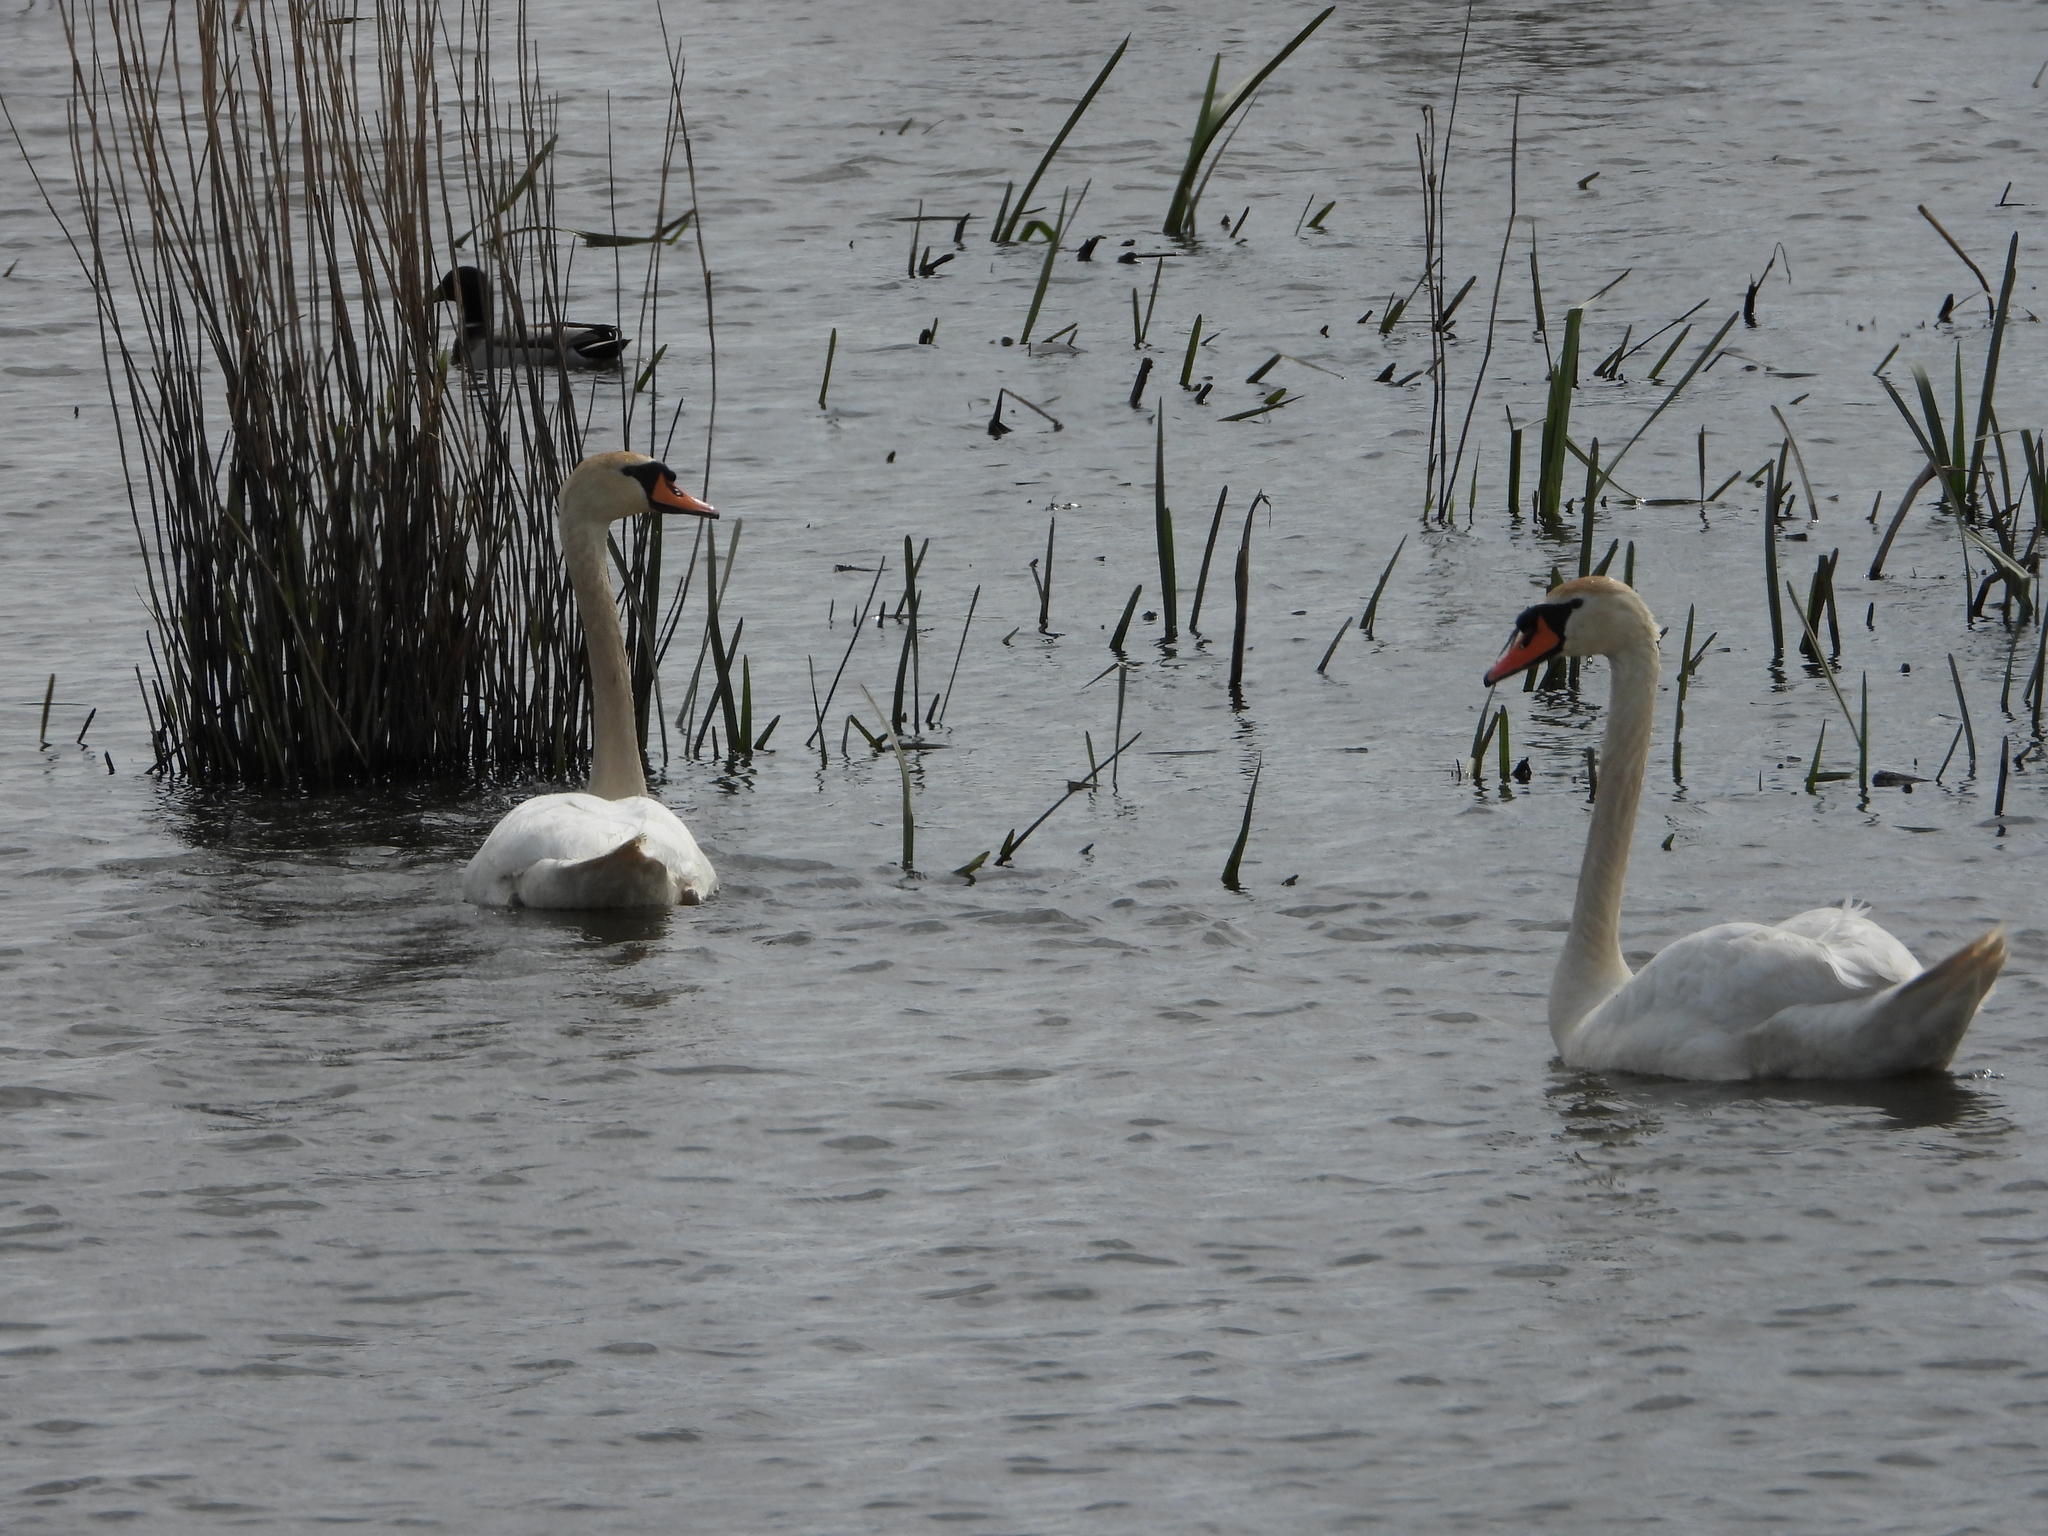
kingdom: Animalia
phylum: Chordata
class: Aves
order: Anseriformes
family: Anatidae
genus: Cygnus
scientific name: Cygnus olor
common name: Mute swan
